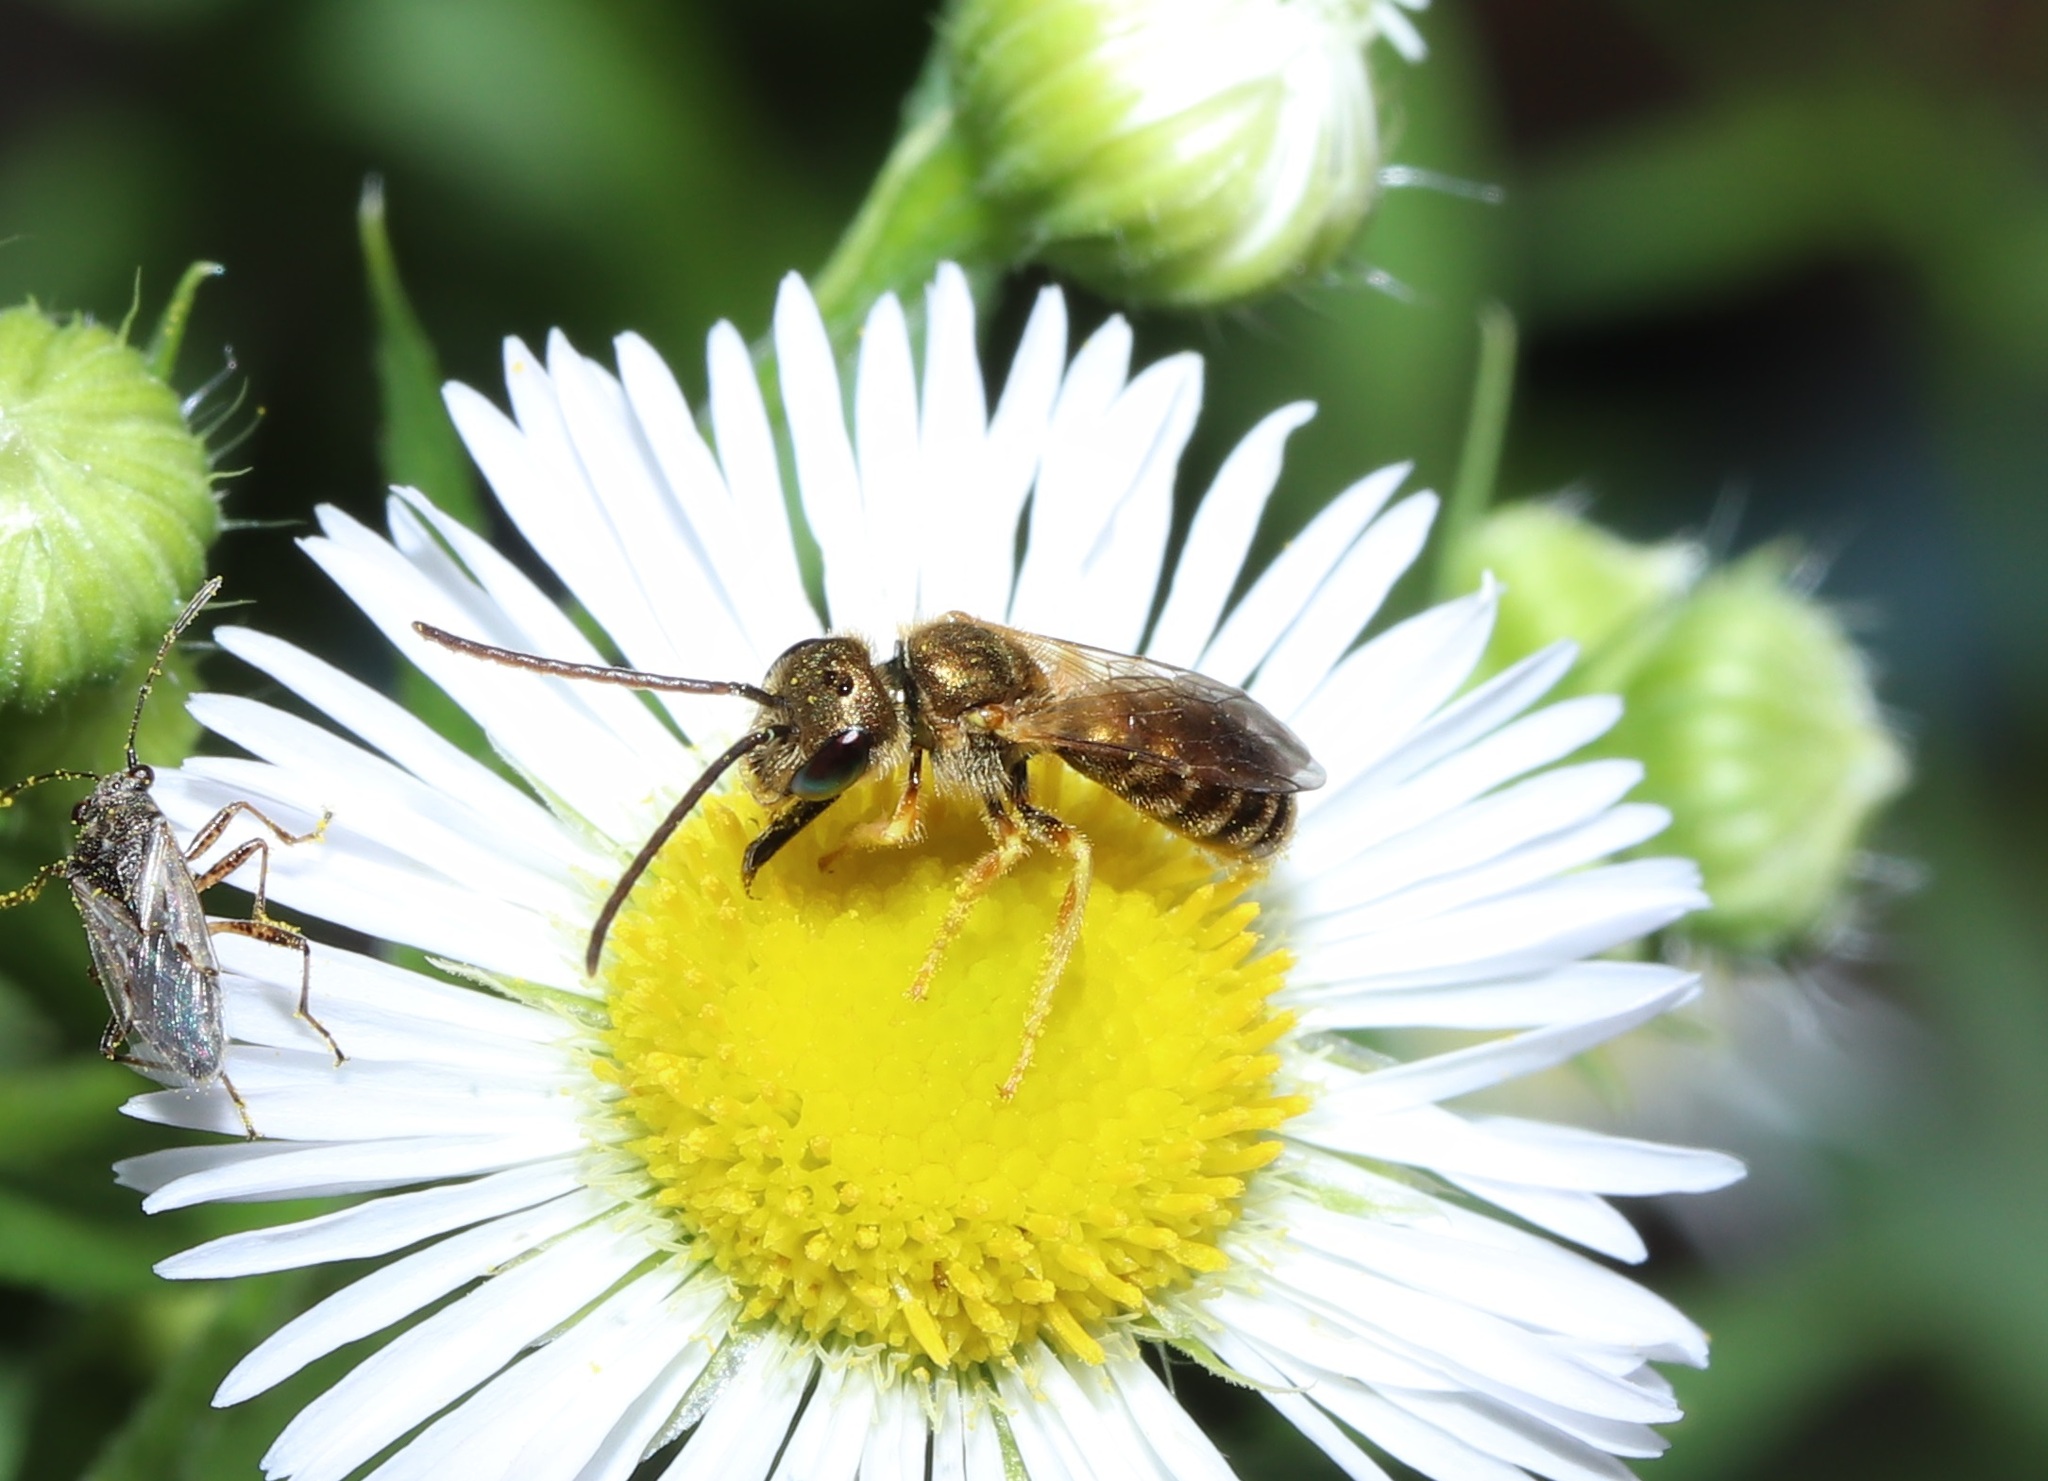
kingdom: Animalia
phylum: Arthropoda
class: Insecta
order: Hymenoptera
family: Halictidae
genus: Halictus
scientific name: Halictus aerarius
